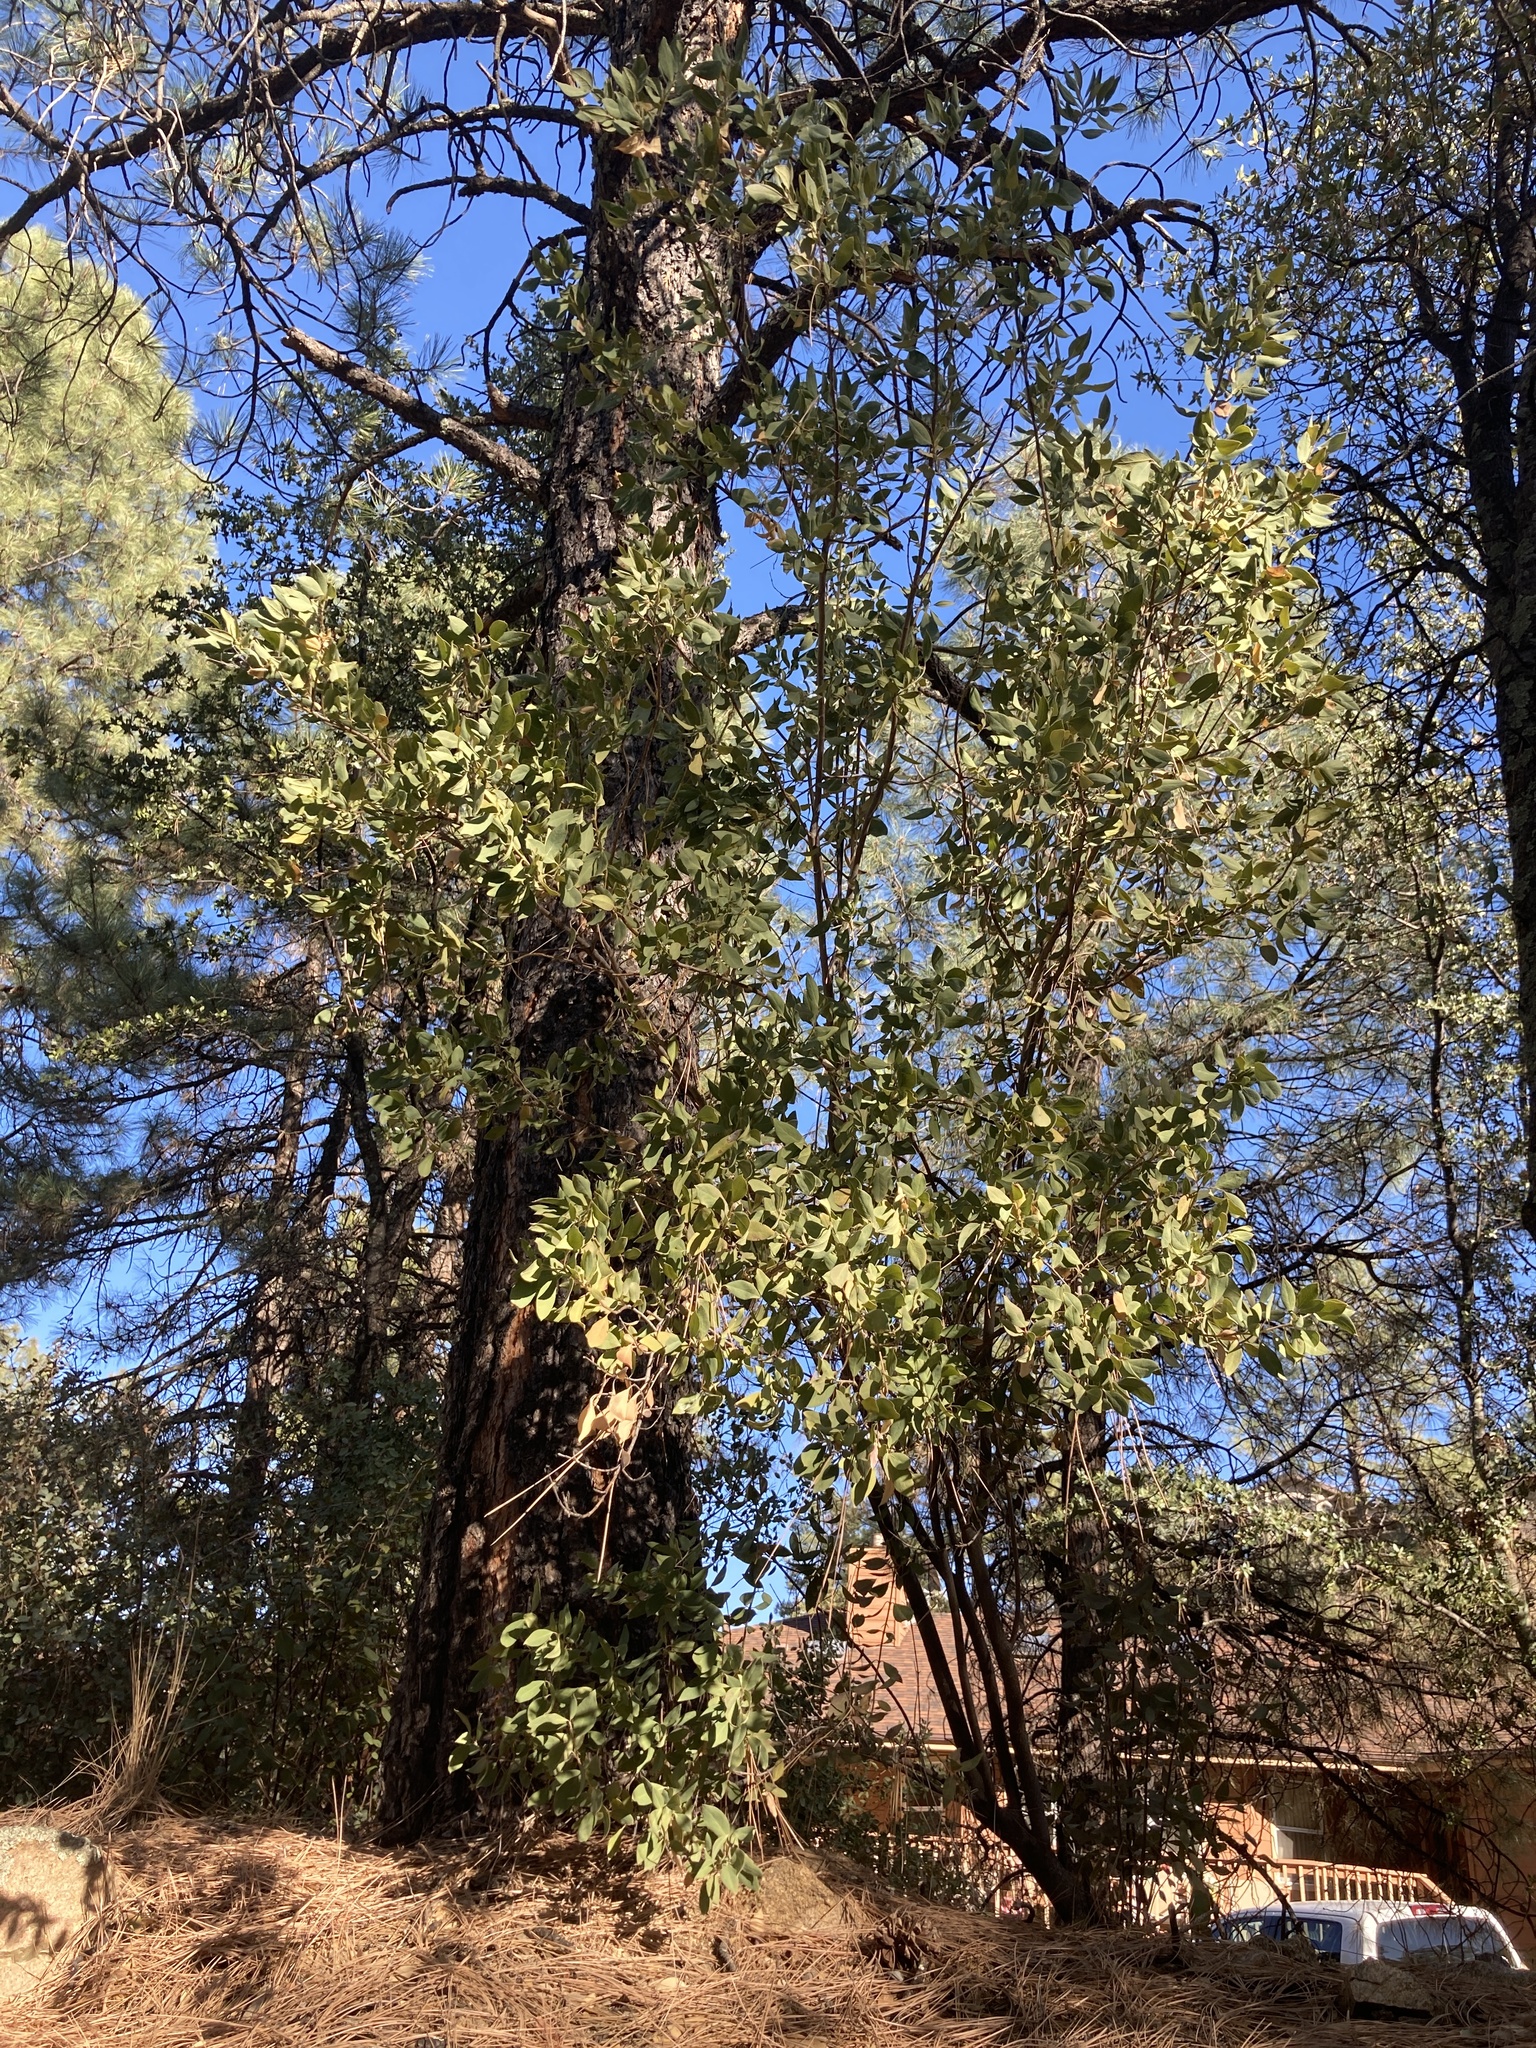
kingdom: Plantae
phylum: Tracheophyta
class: Magnoliopsida
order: Garryales
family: Garryaceae
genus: Garrya
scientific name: Garrya wrightii
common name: Wright's silktassel
